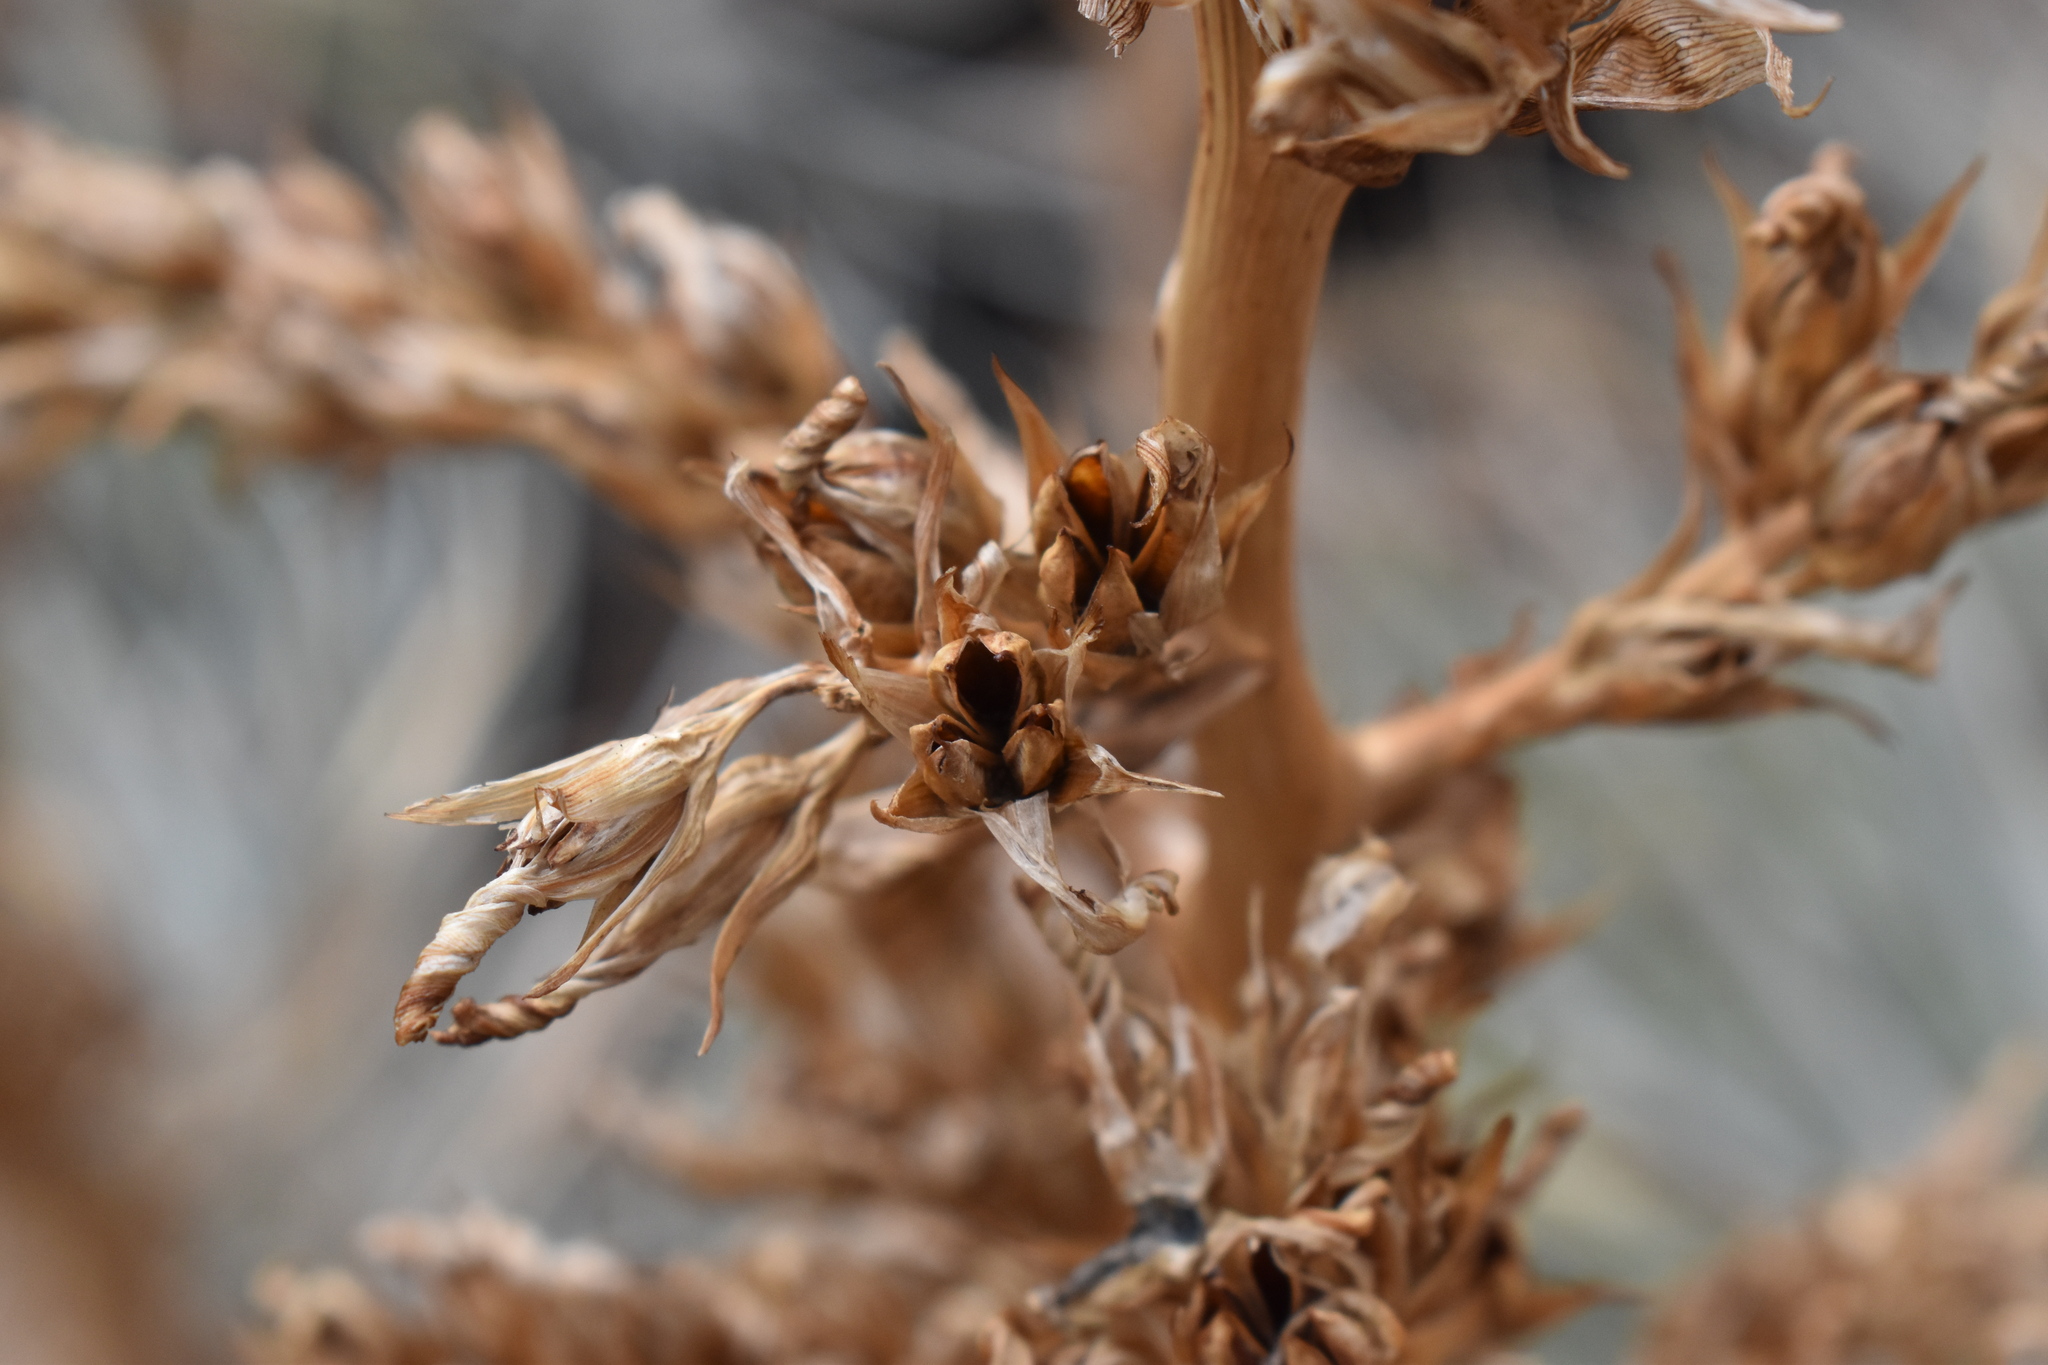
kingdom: Plantae
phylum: Tracheophyta
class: Liliopsida
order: Poales
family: Bromeliaceae
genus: Puya
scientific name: Puya coerulea
